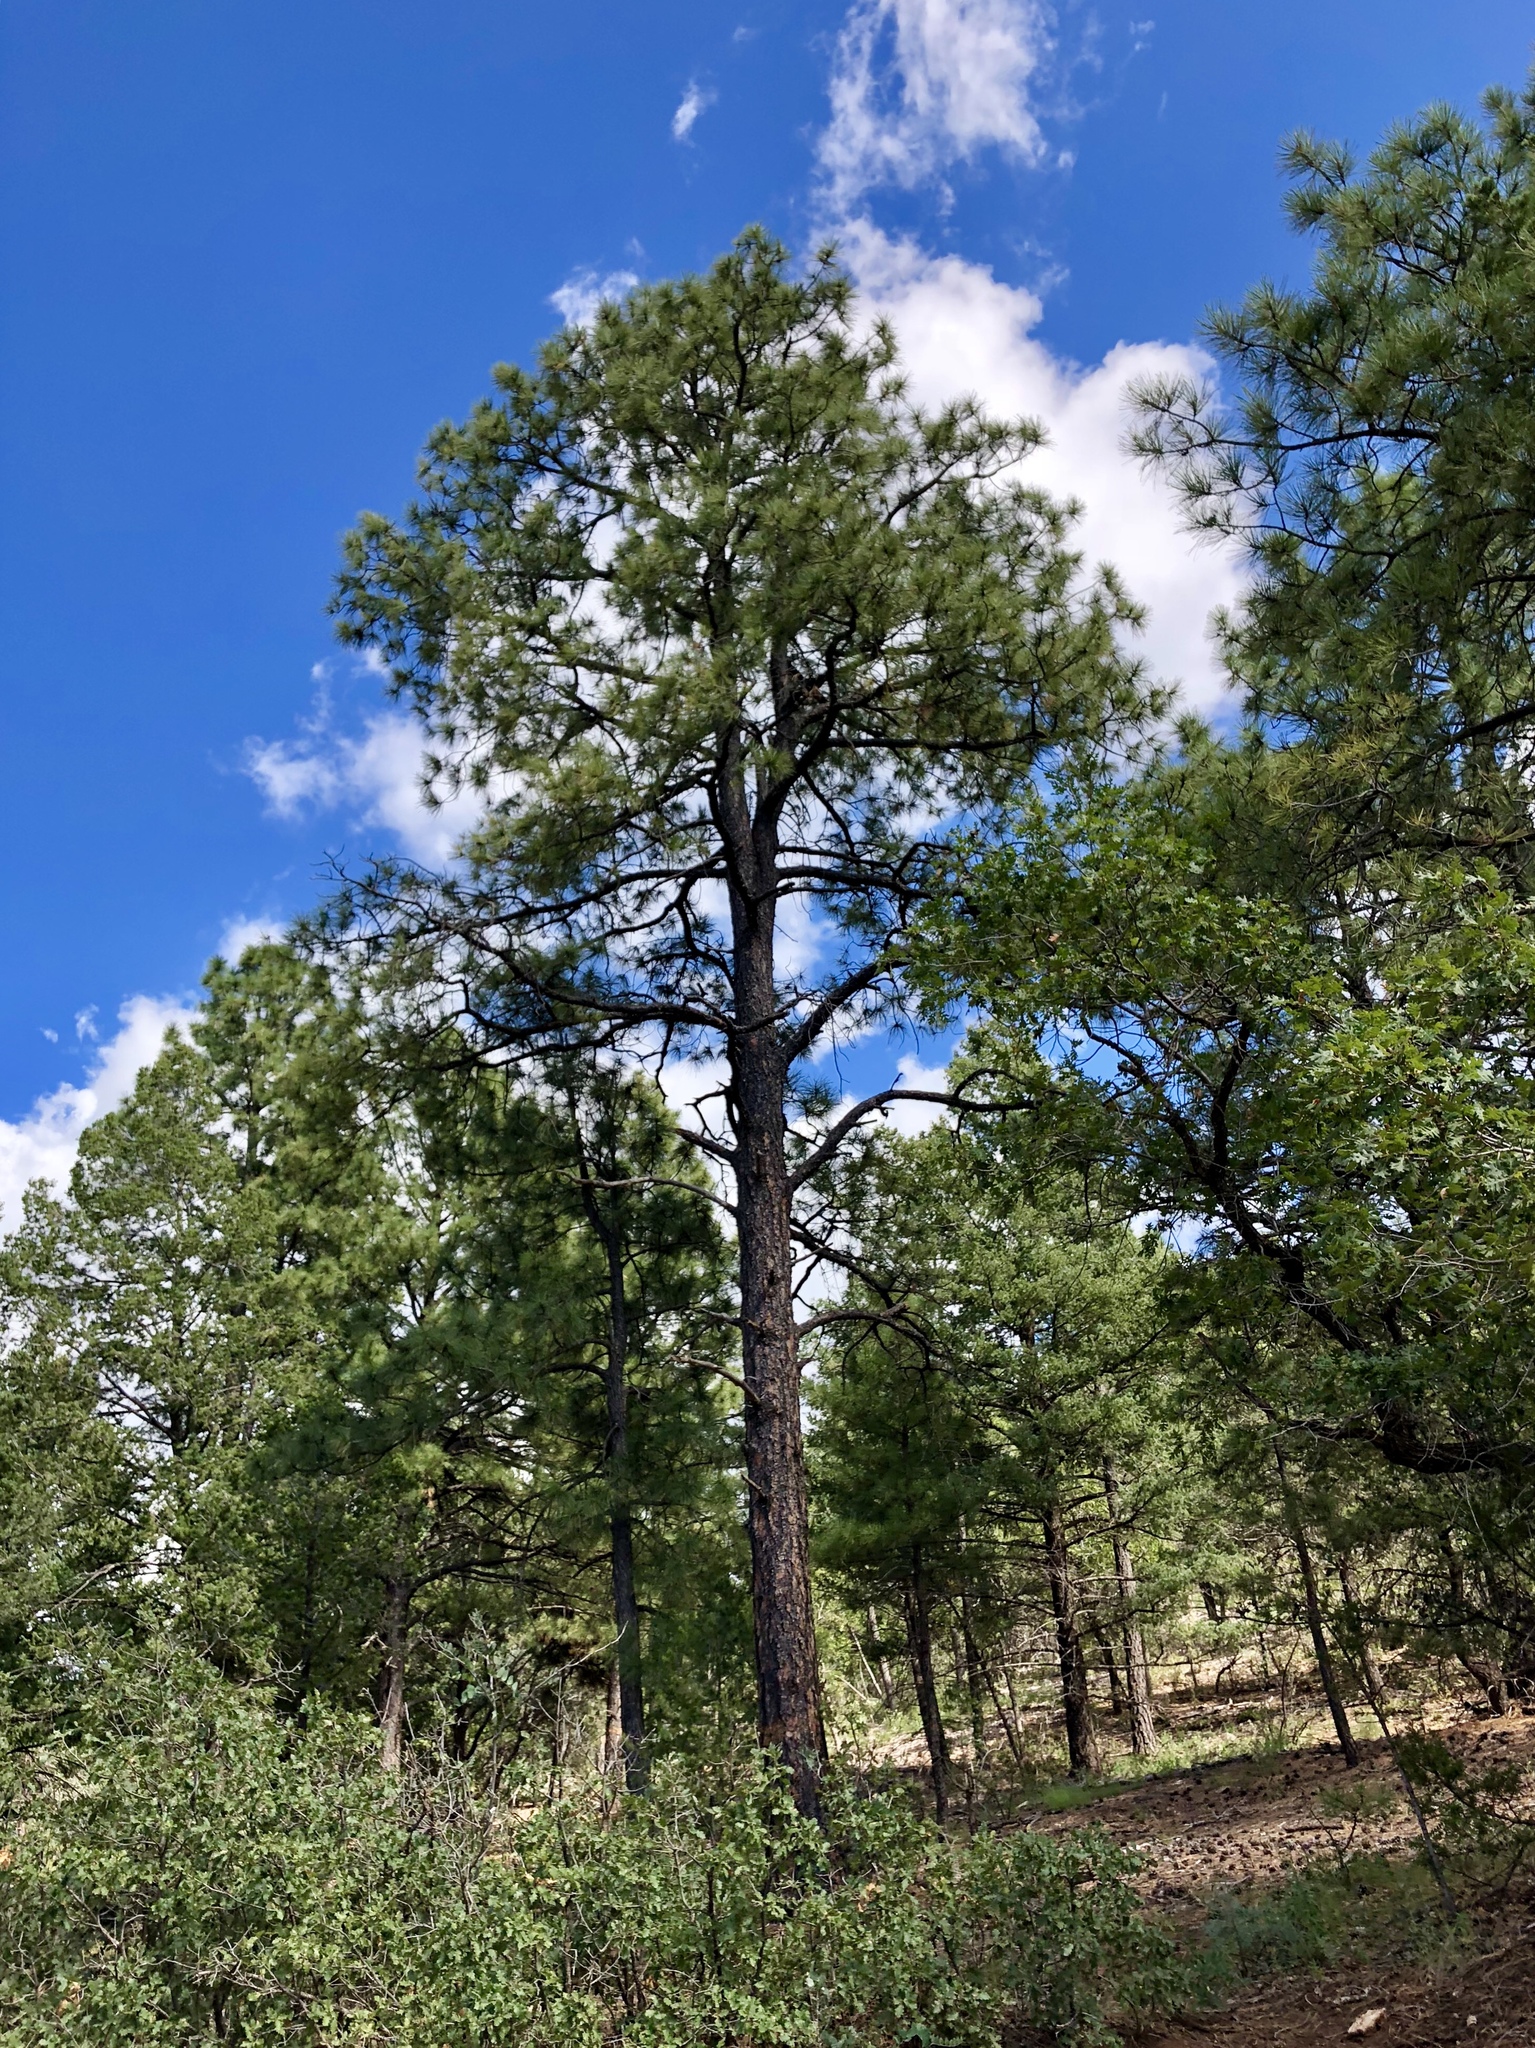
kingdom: Plantae
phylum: Tracheophyta
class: Pinopsida
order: Pinales
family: Pinaceae
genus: Pinus
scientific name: Pinus ponderosa
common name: Western yellow-pine
